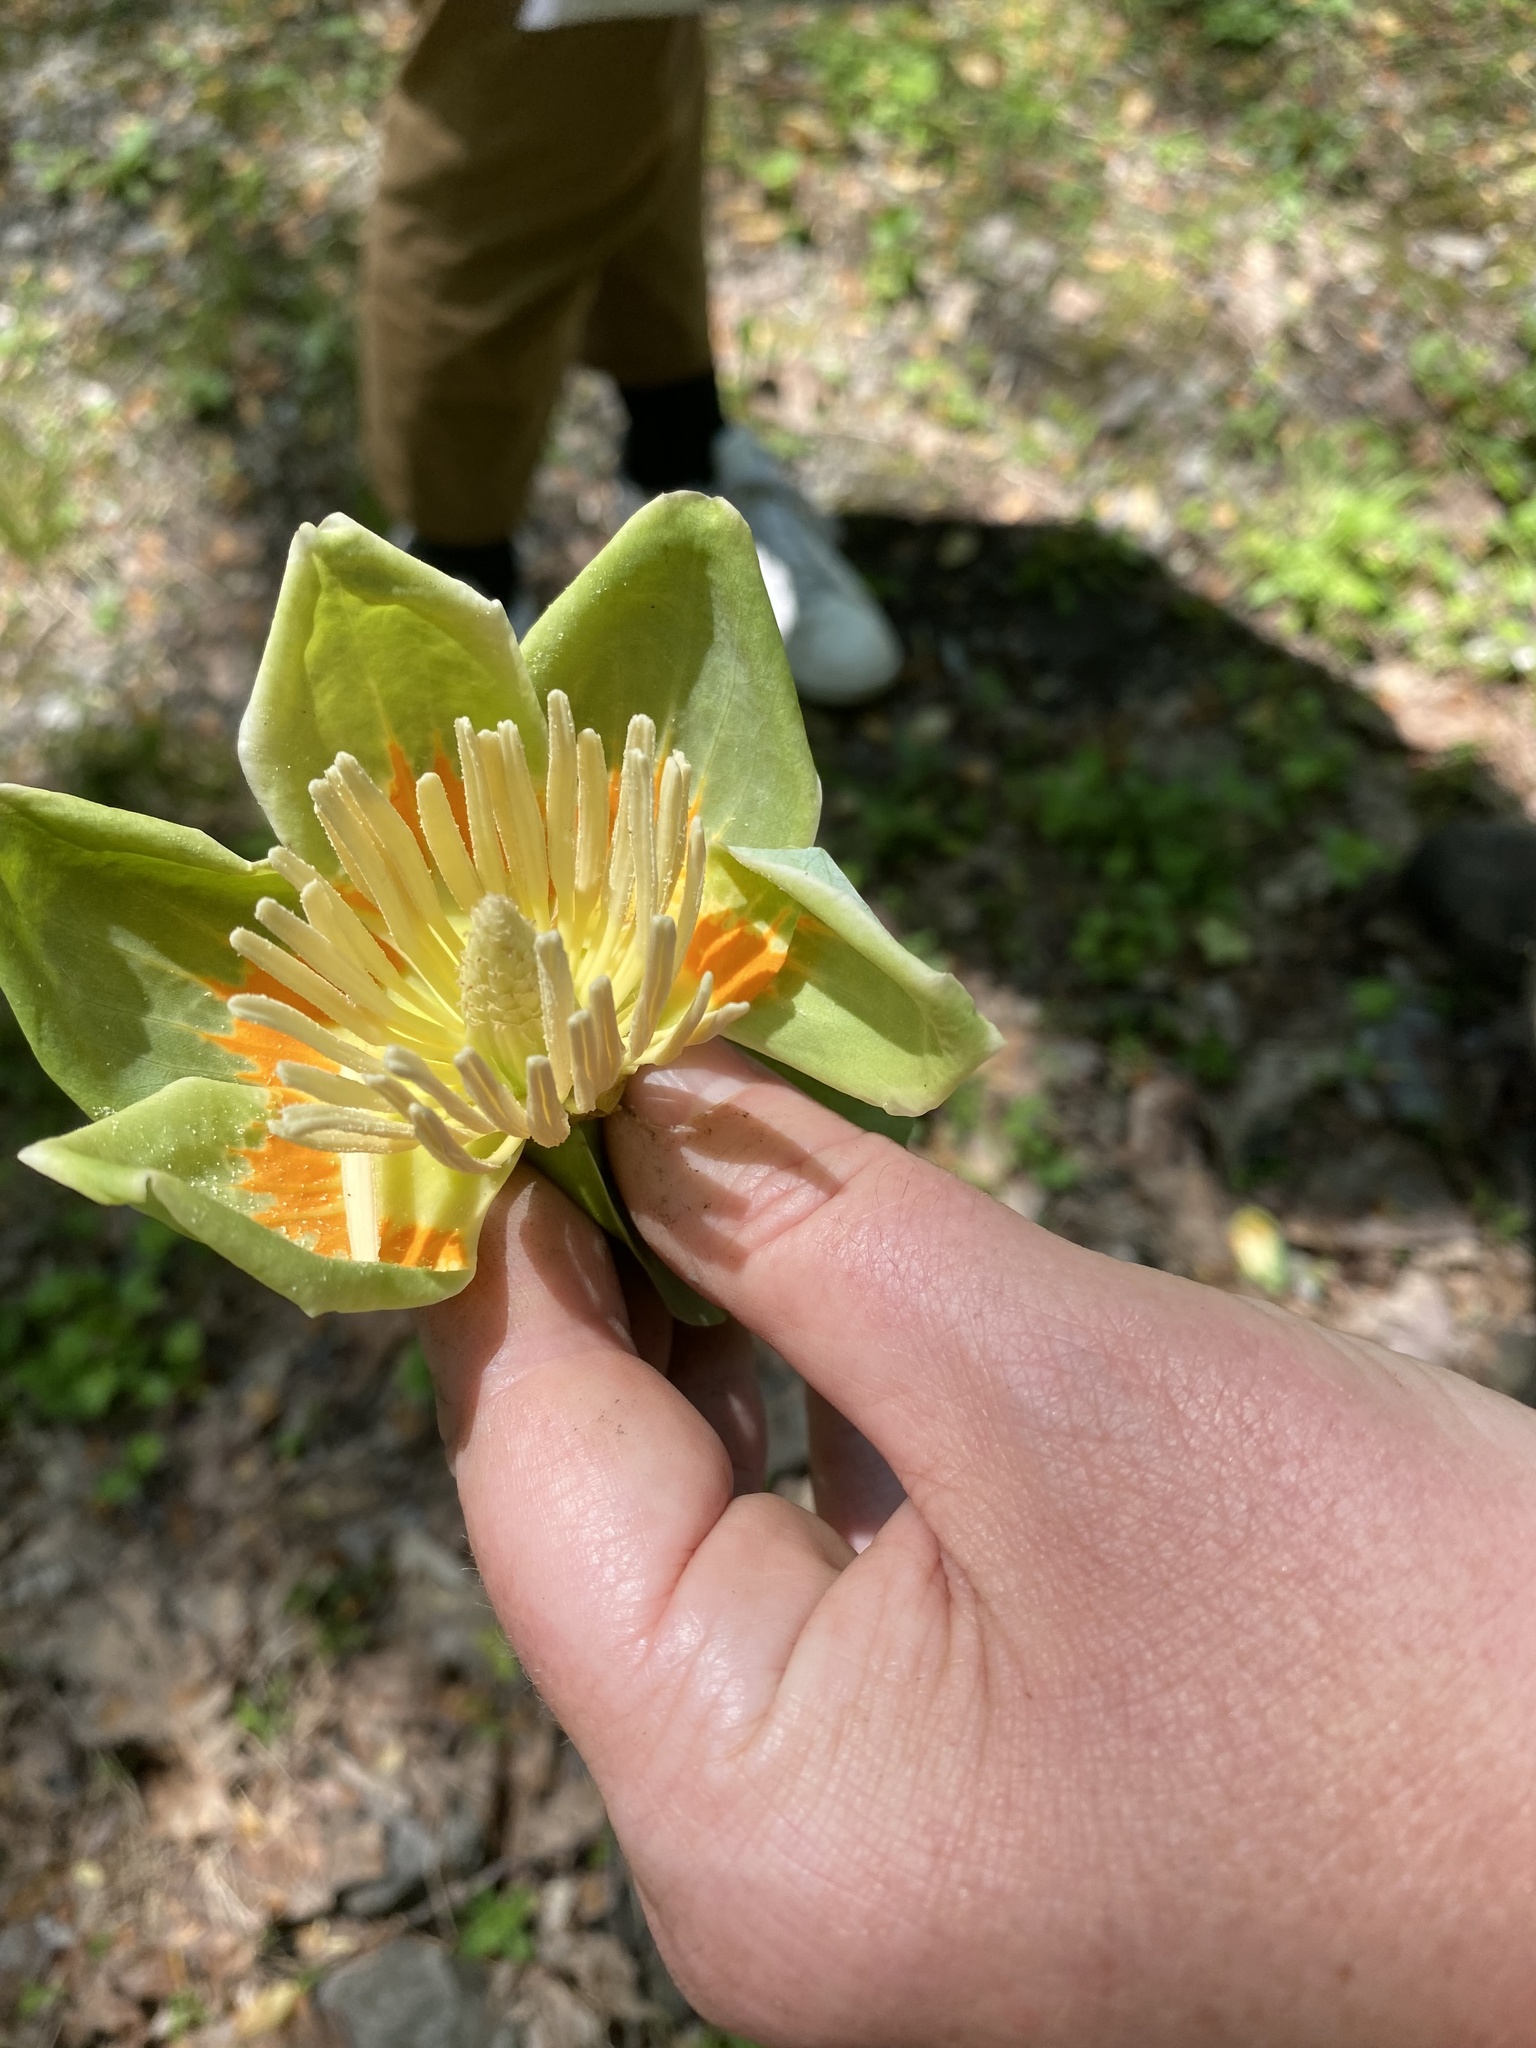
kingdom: Plantae
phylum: Tracheophyta
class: Magnoliopsida
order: Magnoliales
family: Magnoliaceae
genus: Liriodendron
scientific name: Liriodendron tulipifera
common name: Tulip tree
